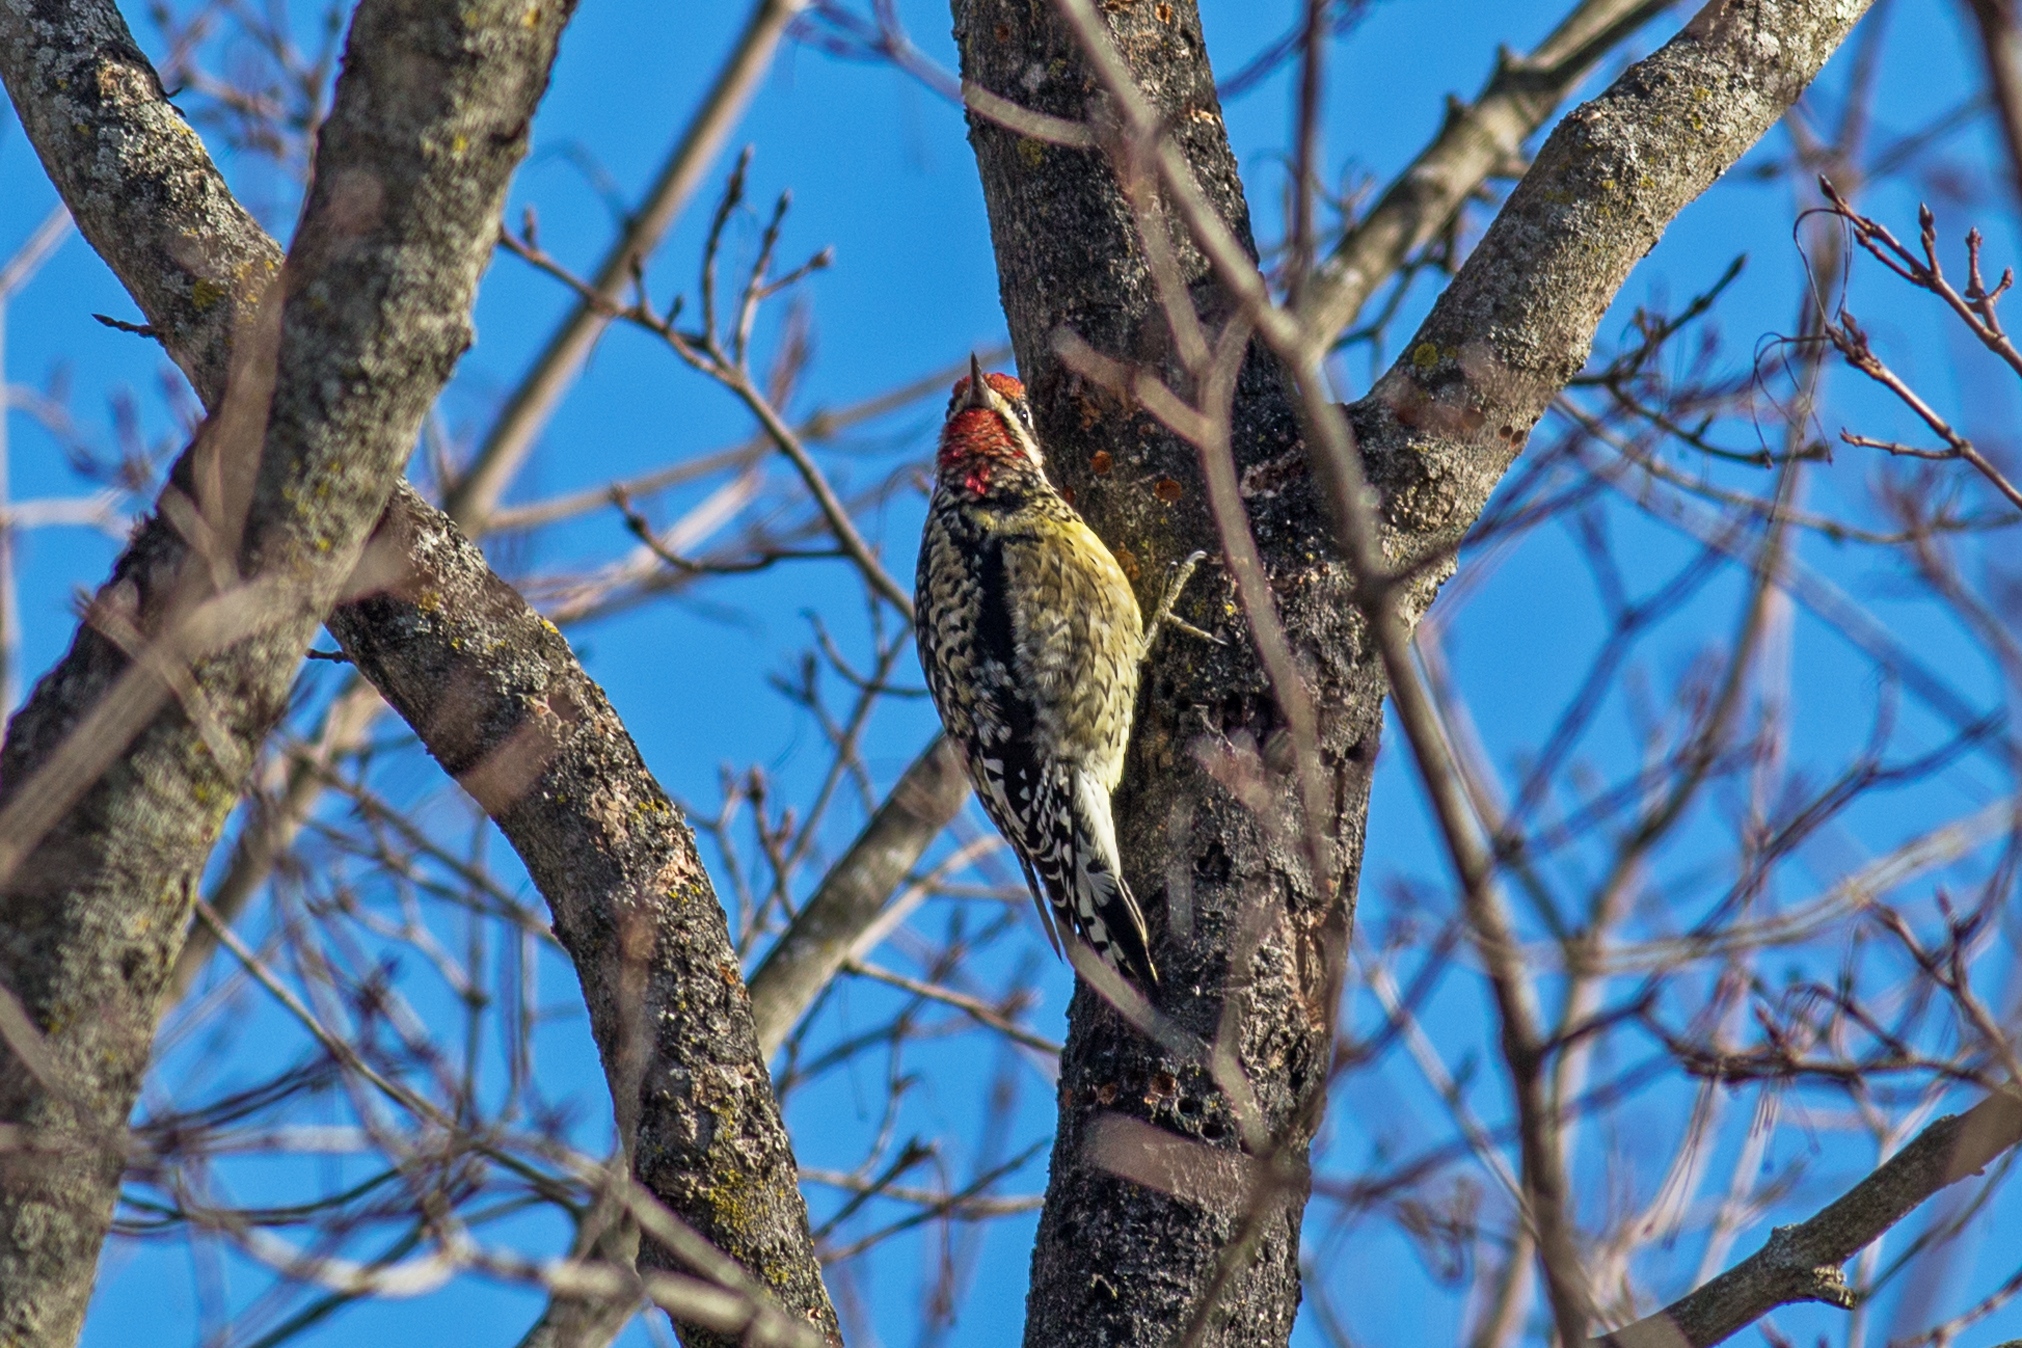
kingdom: Animalia
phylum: Chordata
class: Aves
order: Piciformes
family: Picidae
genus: Sphyrapicus
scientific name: Sphyrapicus varius
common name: Yellow-bellied sapsucker
